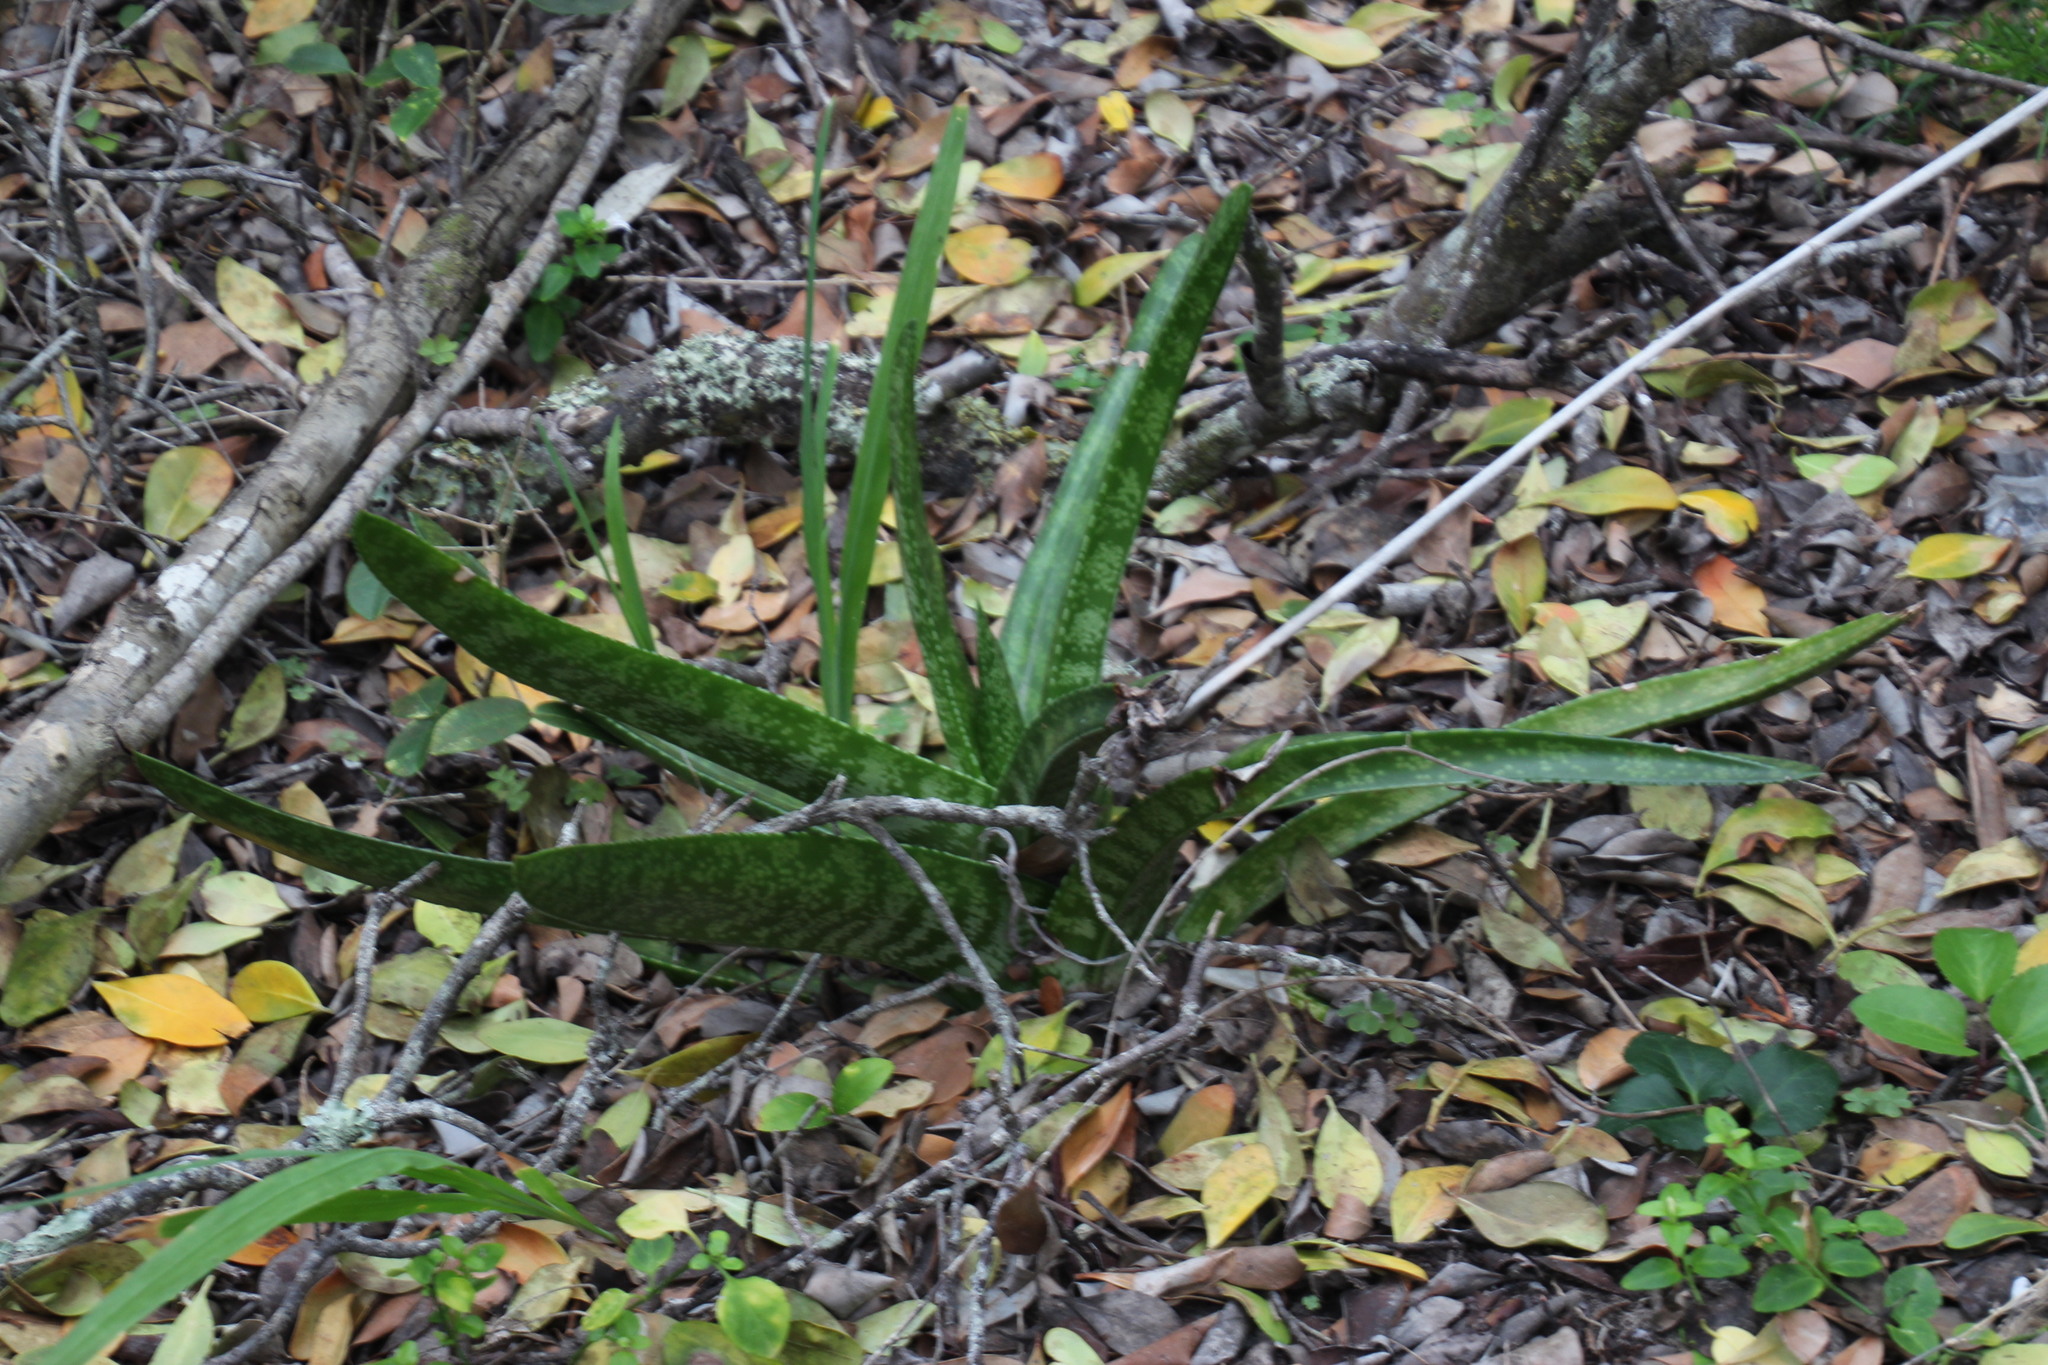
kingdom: Plantae
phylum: Tracheophyta
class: Liliopsida
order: Asparagales
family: Asphodelaceae
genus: Gasteria
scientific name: Gasteria acinacifolia
